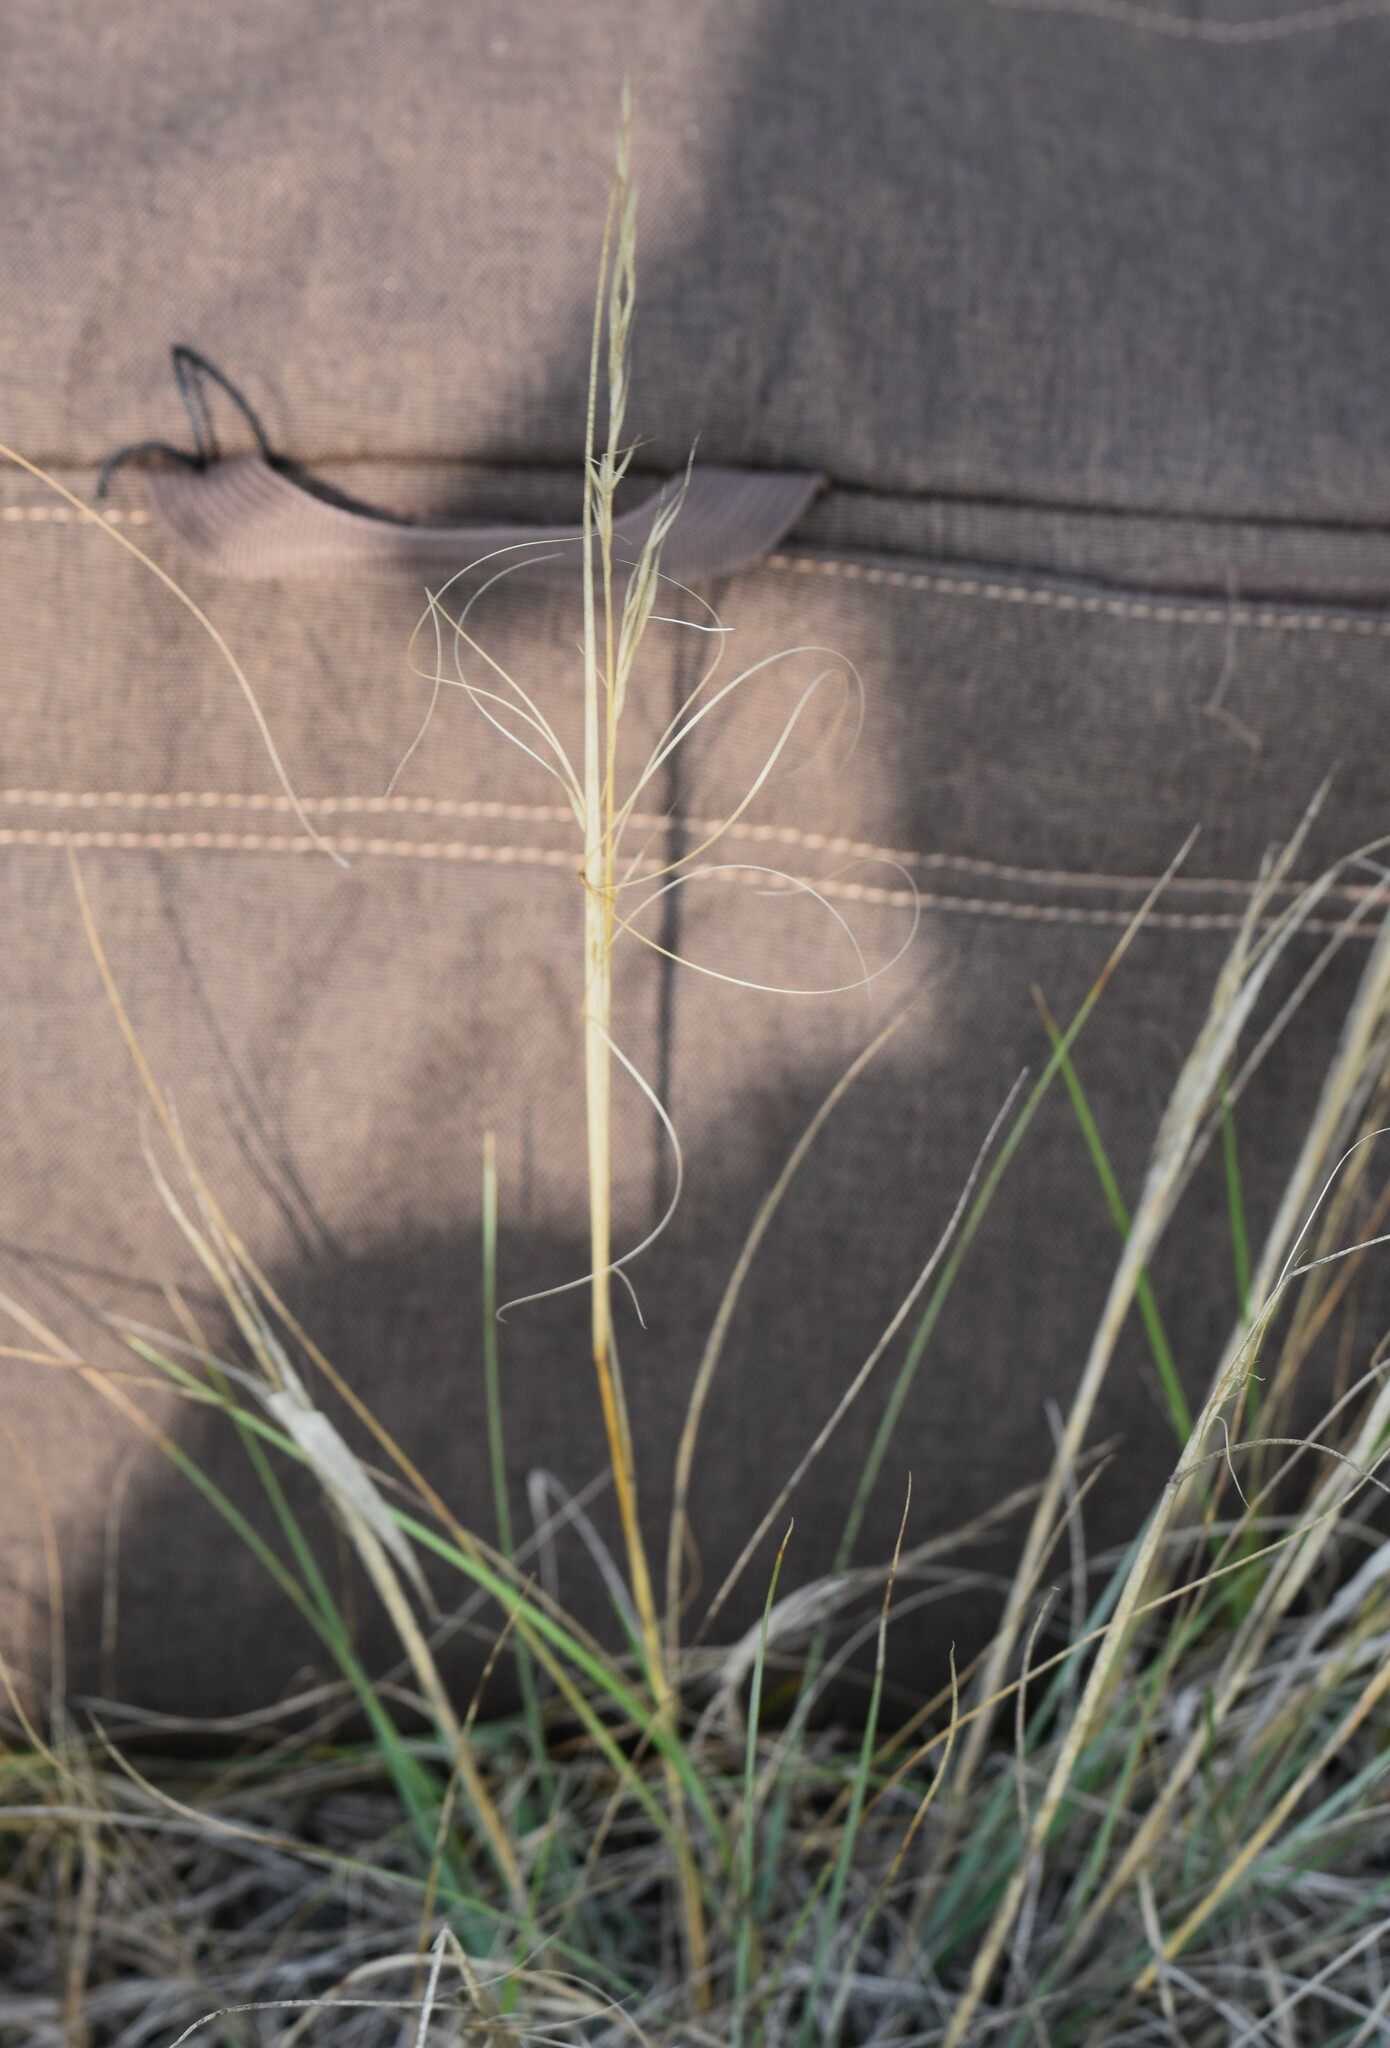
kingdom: Plantae
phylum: Tracheophyta
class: Liliopsida
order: Poales
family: Poaceae
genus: Hesperostipa
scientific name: Hesperostipa comata
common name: Needle-and-thread grass
